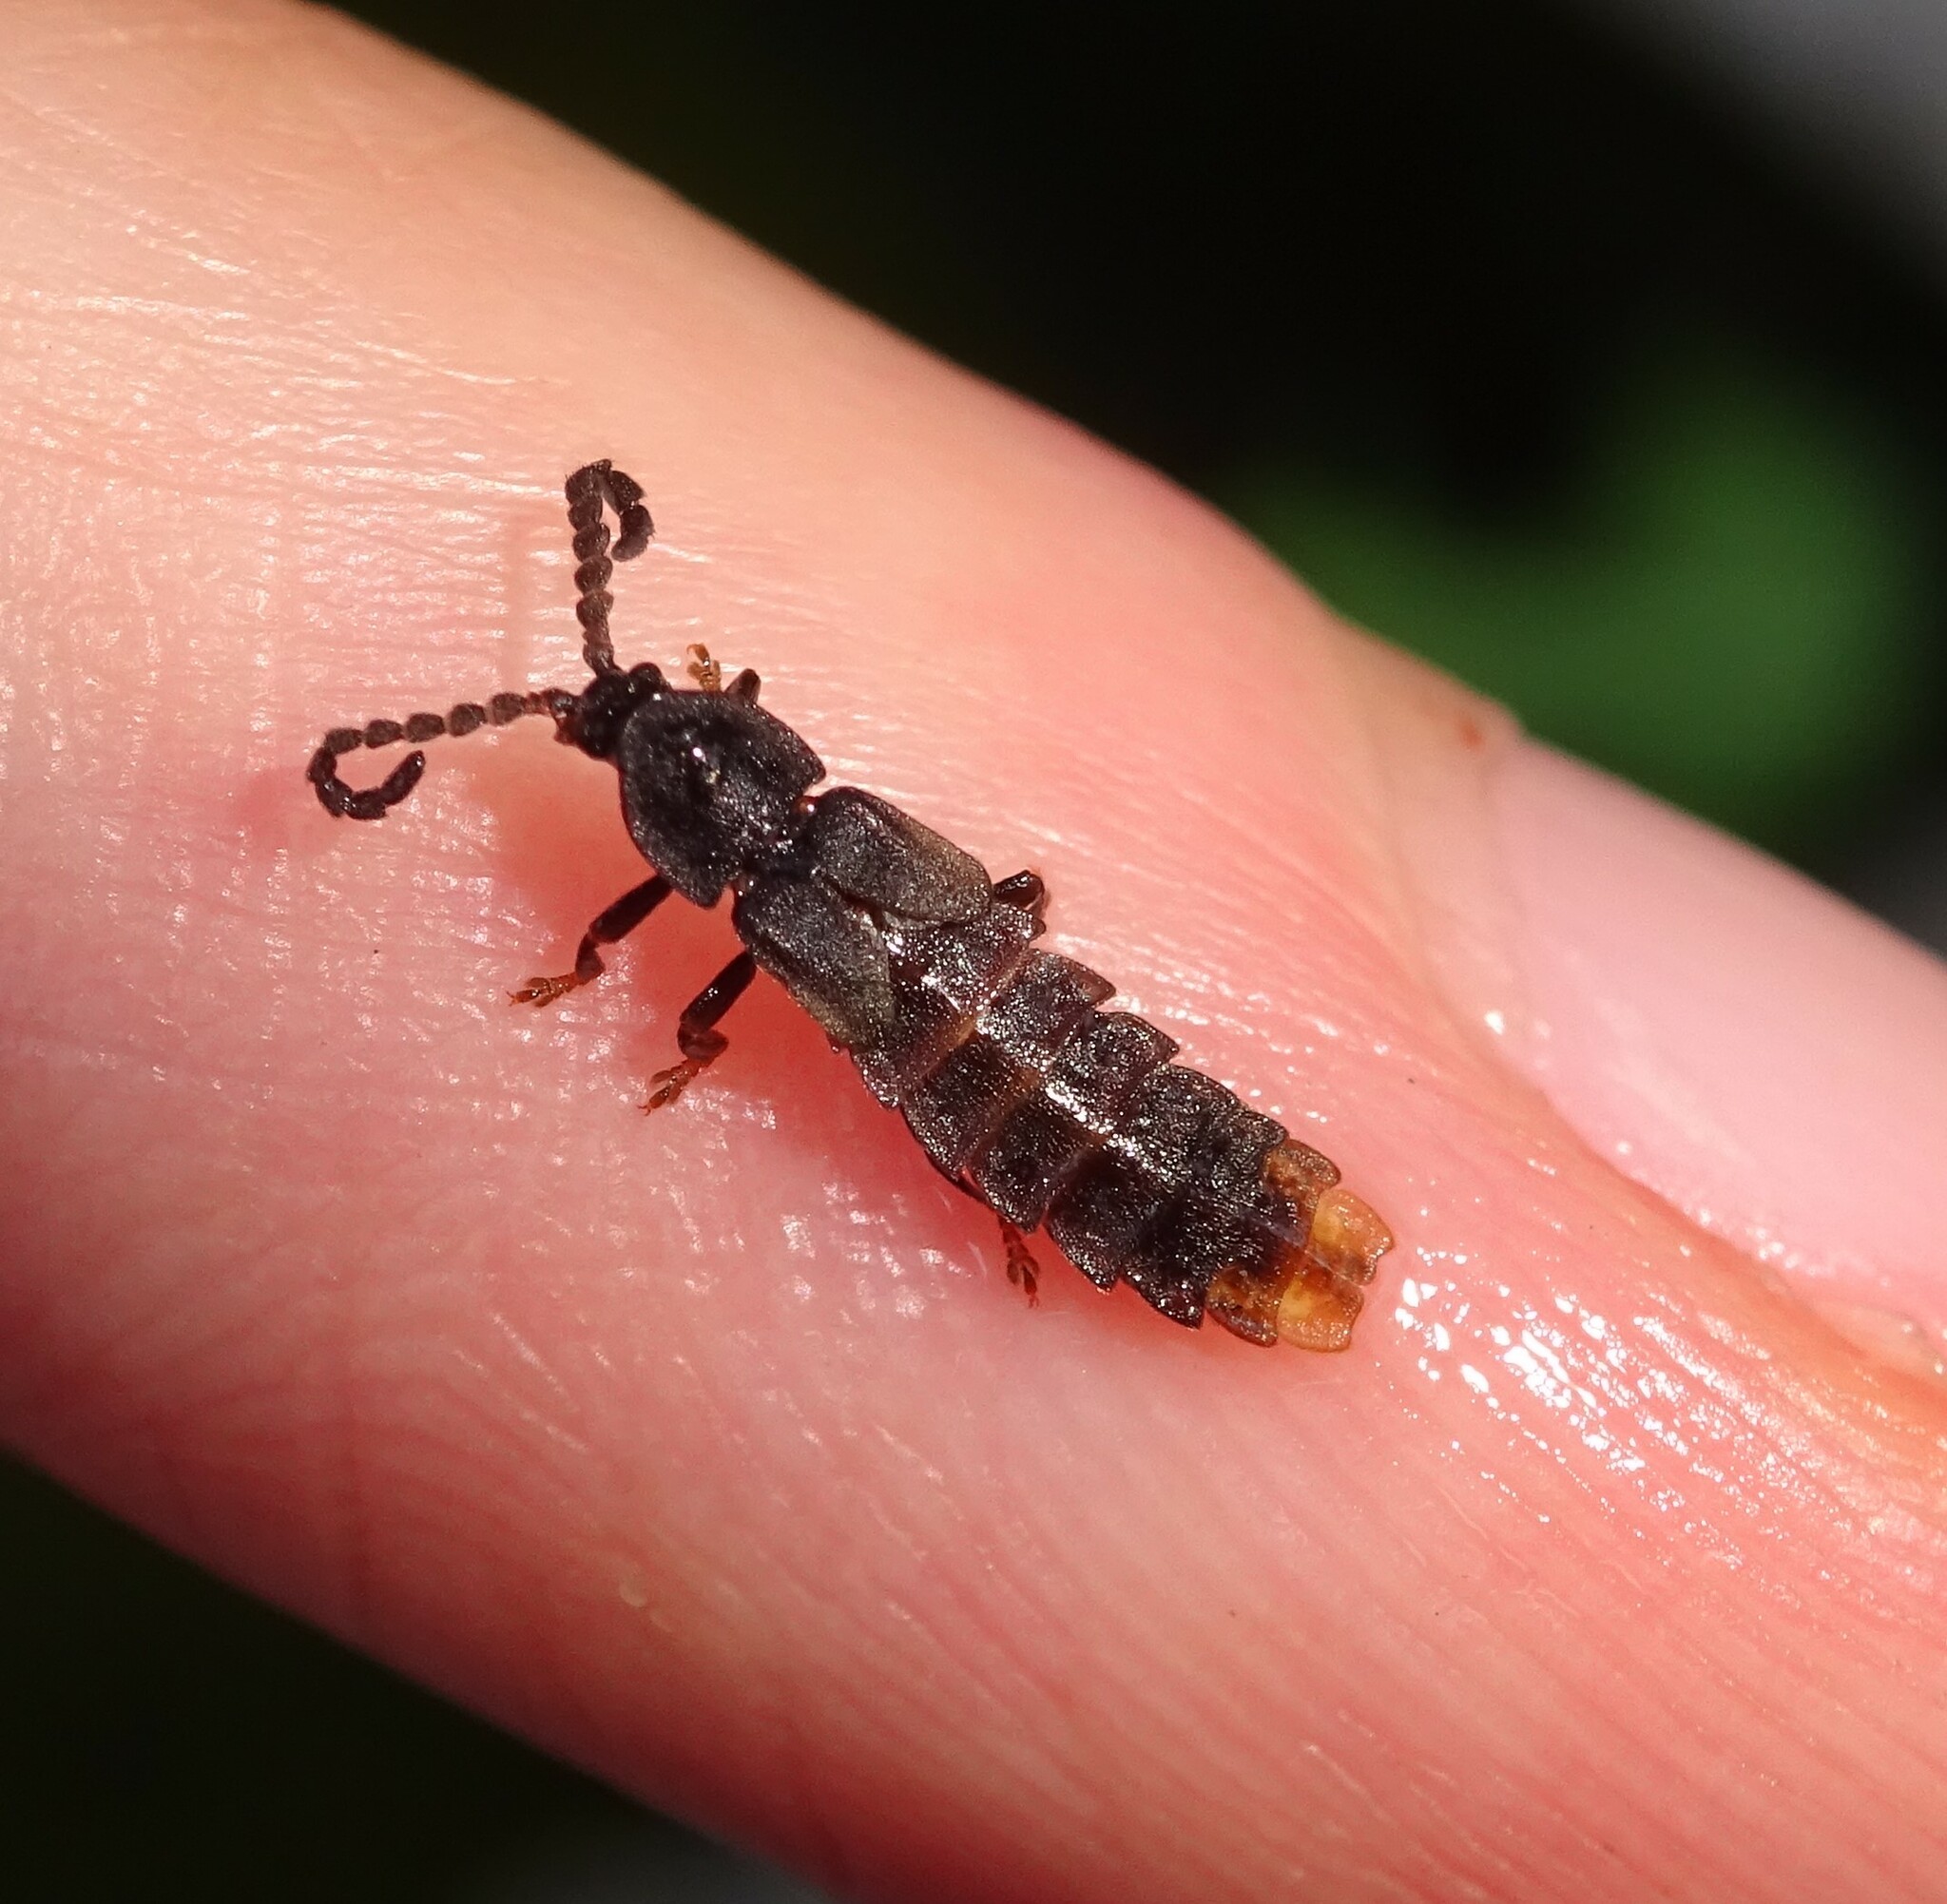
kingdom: Animalia
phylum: Arthropoda
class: Insecta
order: Coleoptera
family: Lampyridae
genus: Phosphaenus
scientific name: Phosphaenus hemipterus
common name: Short-winged firefly
